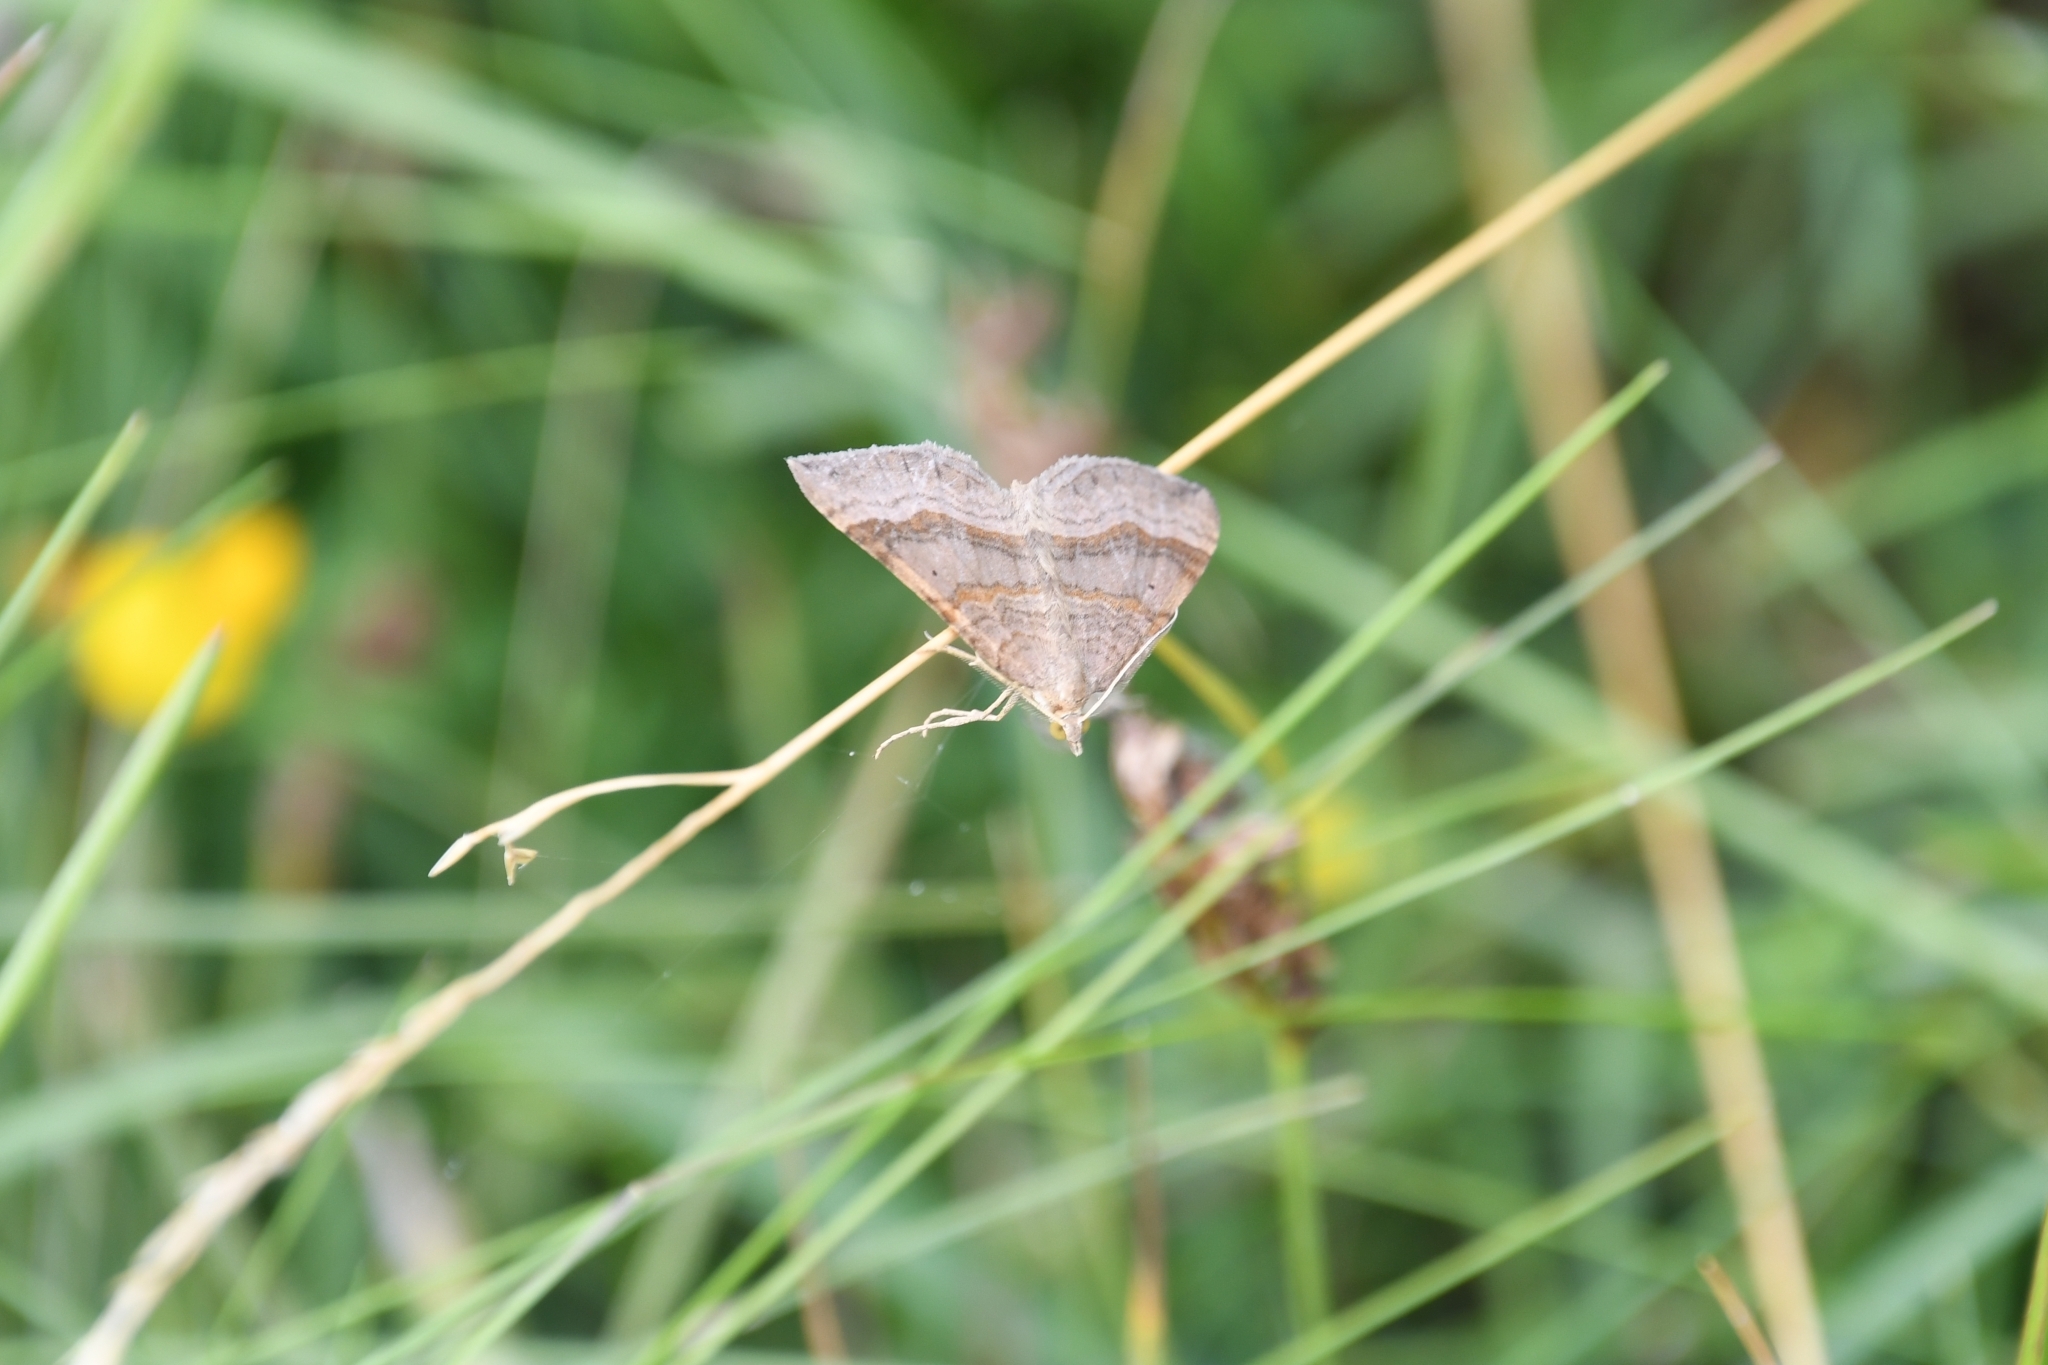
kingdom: Animalia
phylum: Arthropoda
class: Insecta
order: Lepidoptera
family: Geometridae
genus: Scotopteryx
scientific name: Scotopteryx chenopodiata
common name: Shaded broad-bar
